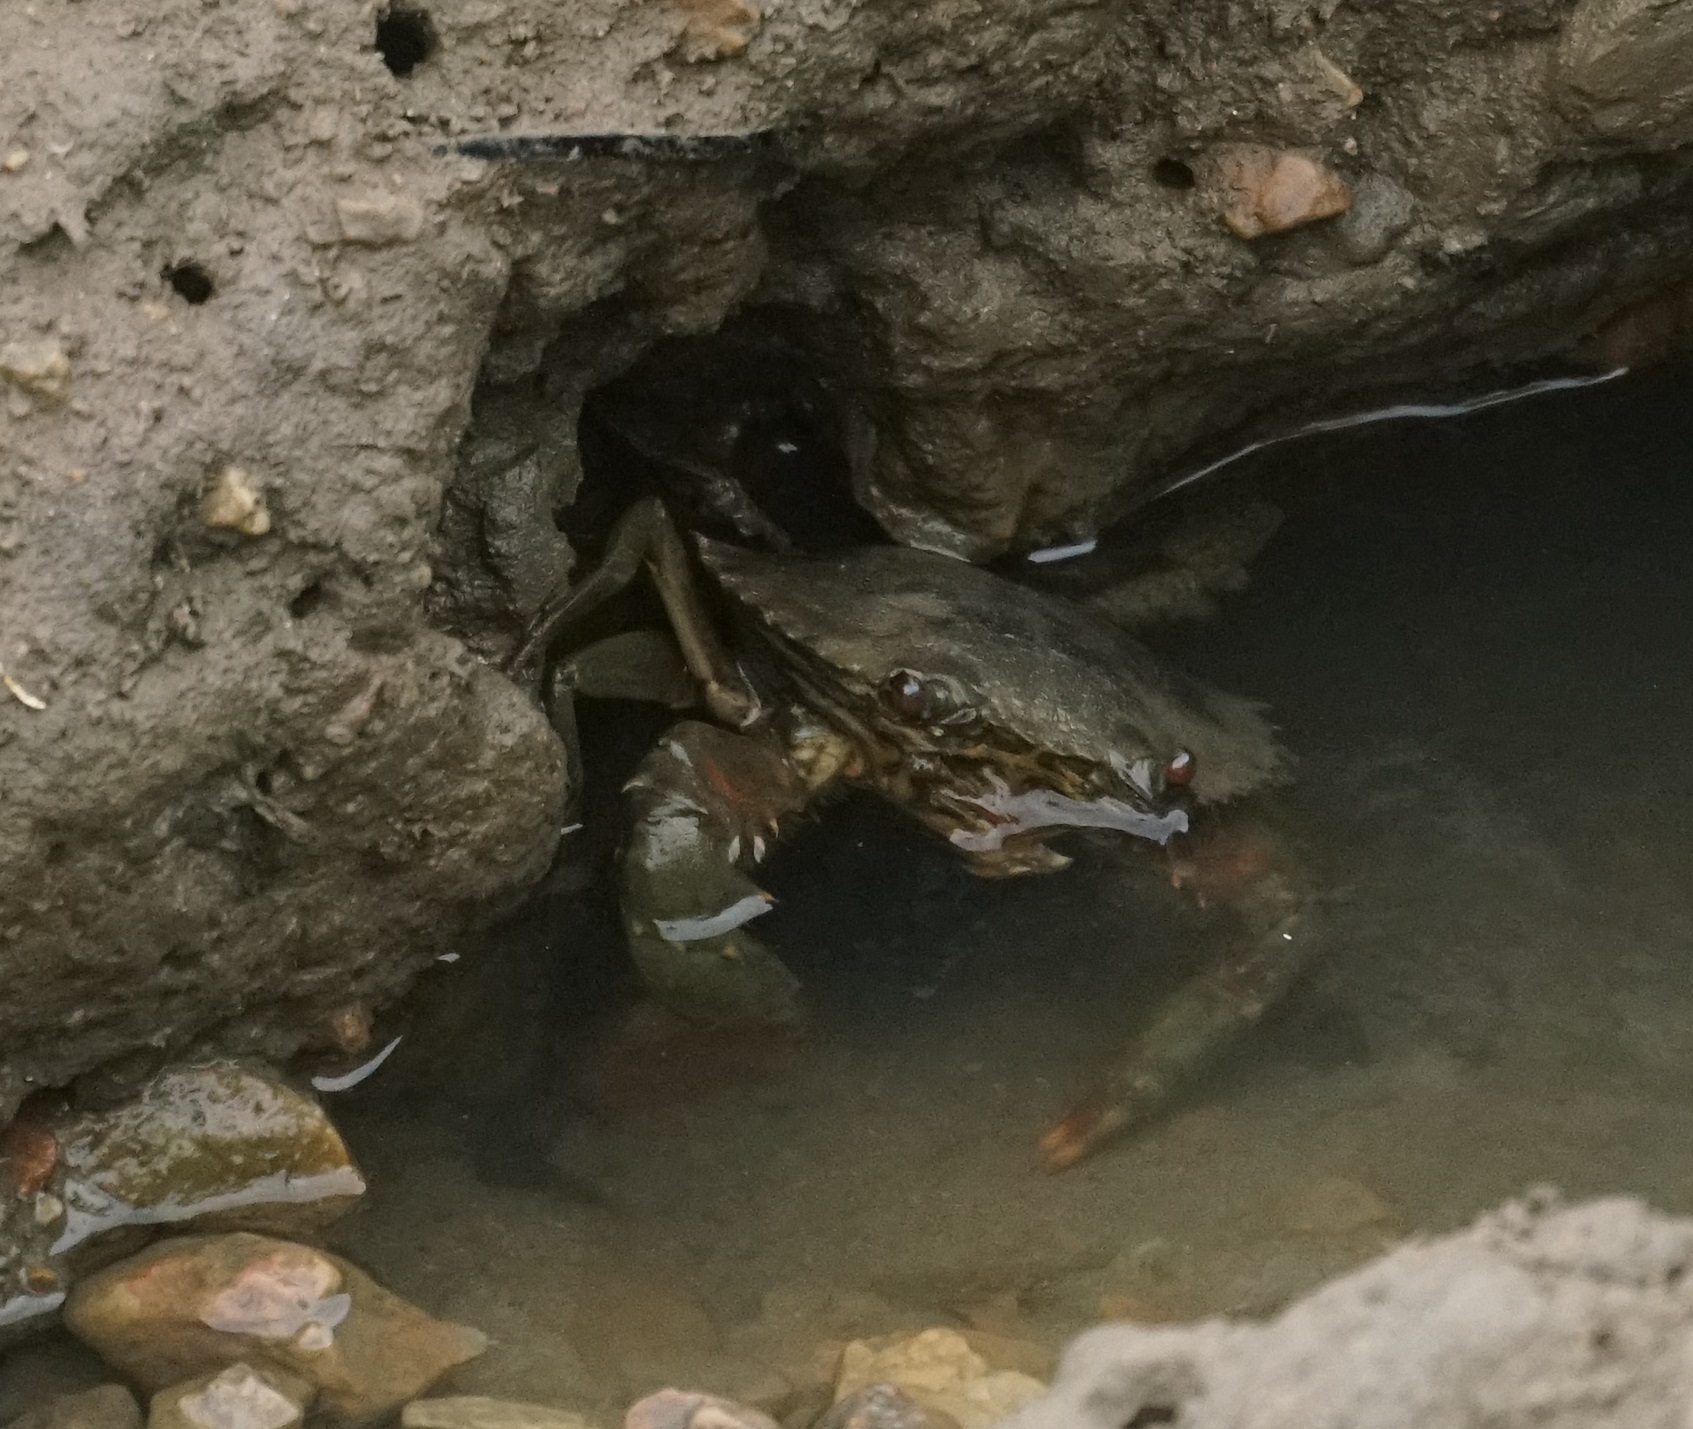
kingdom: Animalia
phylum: Arthropoda
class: Malacostraca
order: Decapoda
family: Portunidae
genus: Scylla
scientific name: Scylla serrata
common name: Giant mud crab
